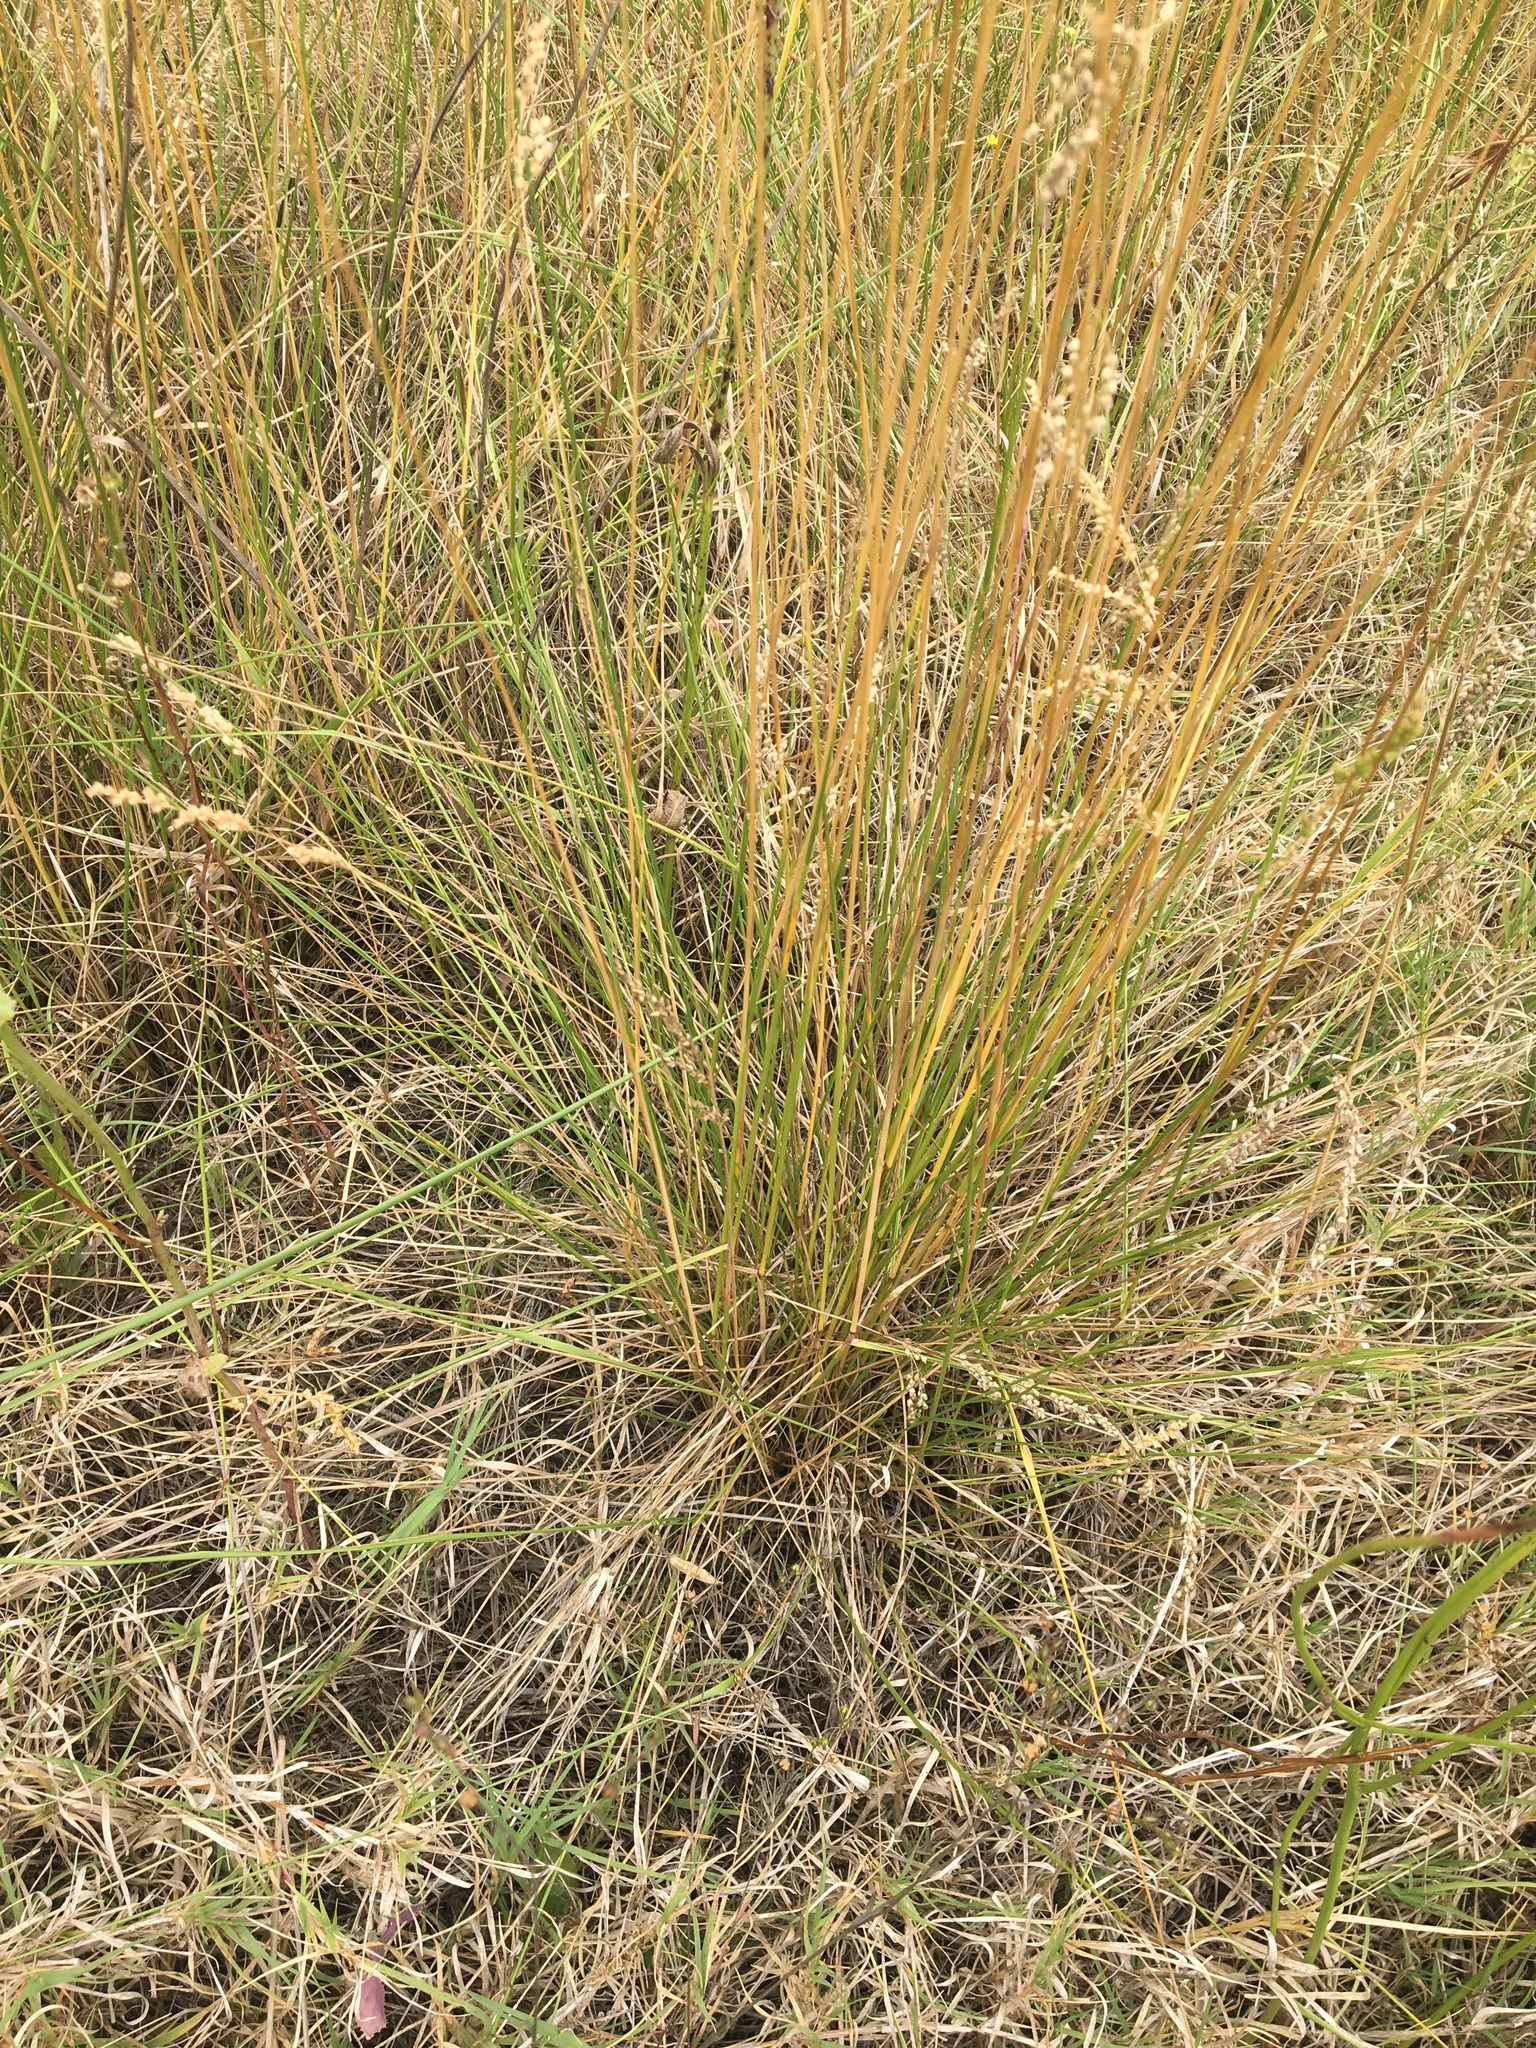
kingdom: Plantae
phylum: Tracheophyta
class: Liliopsida
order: Poales
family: Poaceae
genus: Chascolytrum
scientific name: Chascolytrum subaristatum
